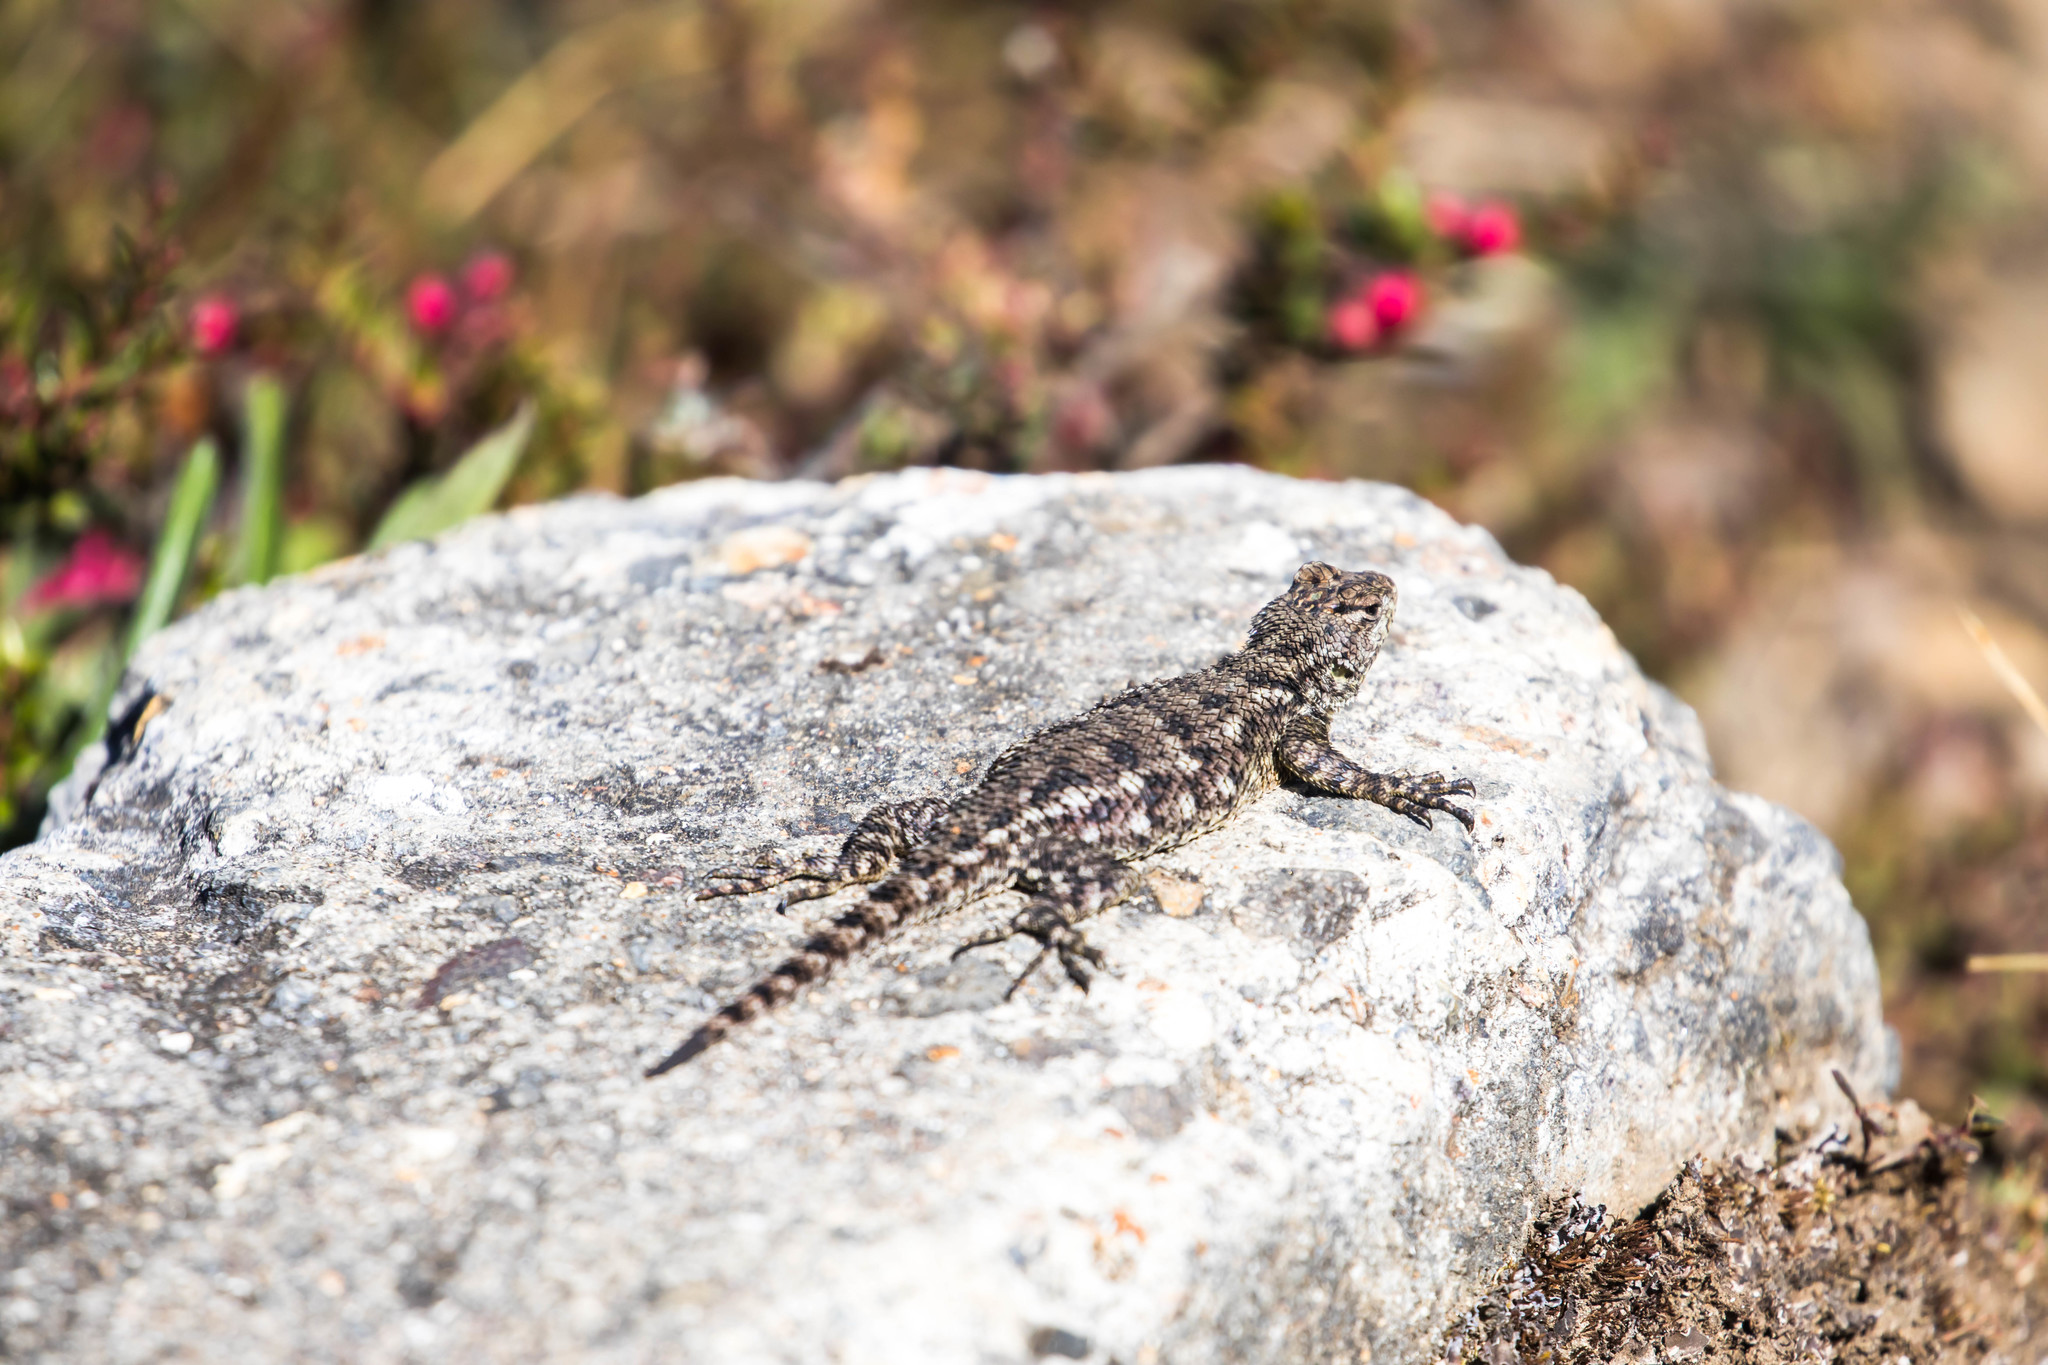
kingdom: Animalia
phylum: Chordata
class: Squamata
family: Phrynosomatidae
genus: Sceloporus
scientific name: Sceloporus malachiticus
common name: Green spiny lizard
